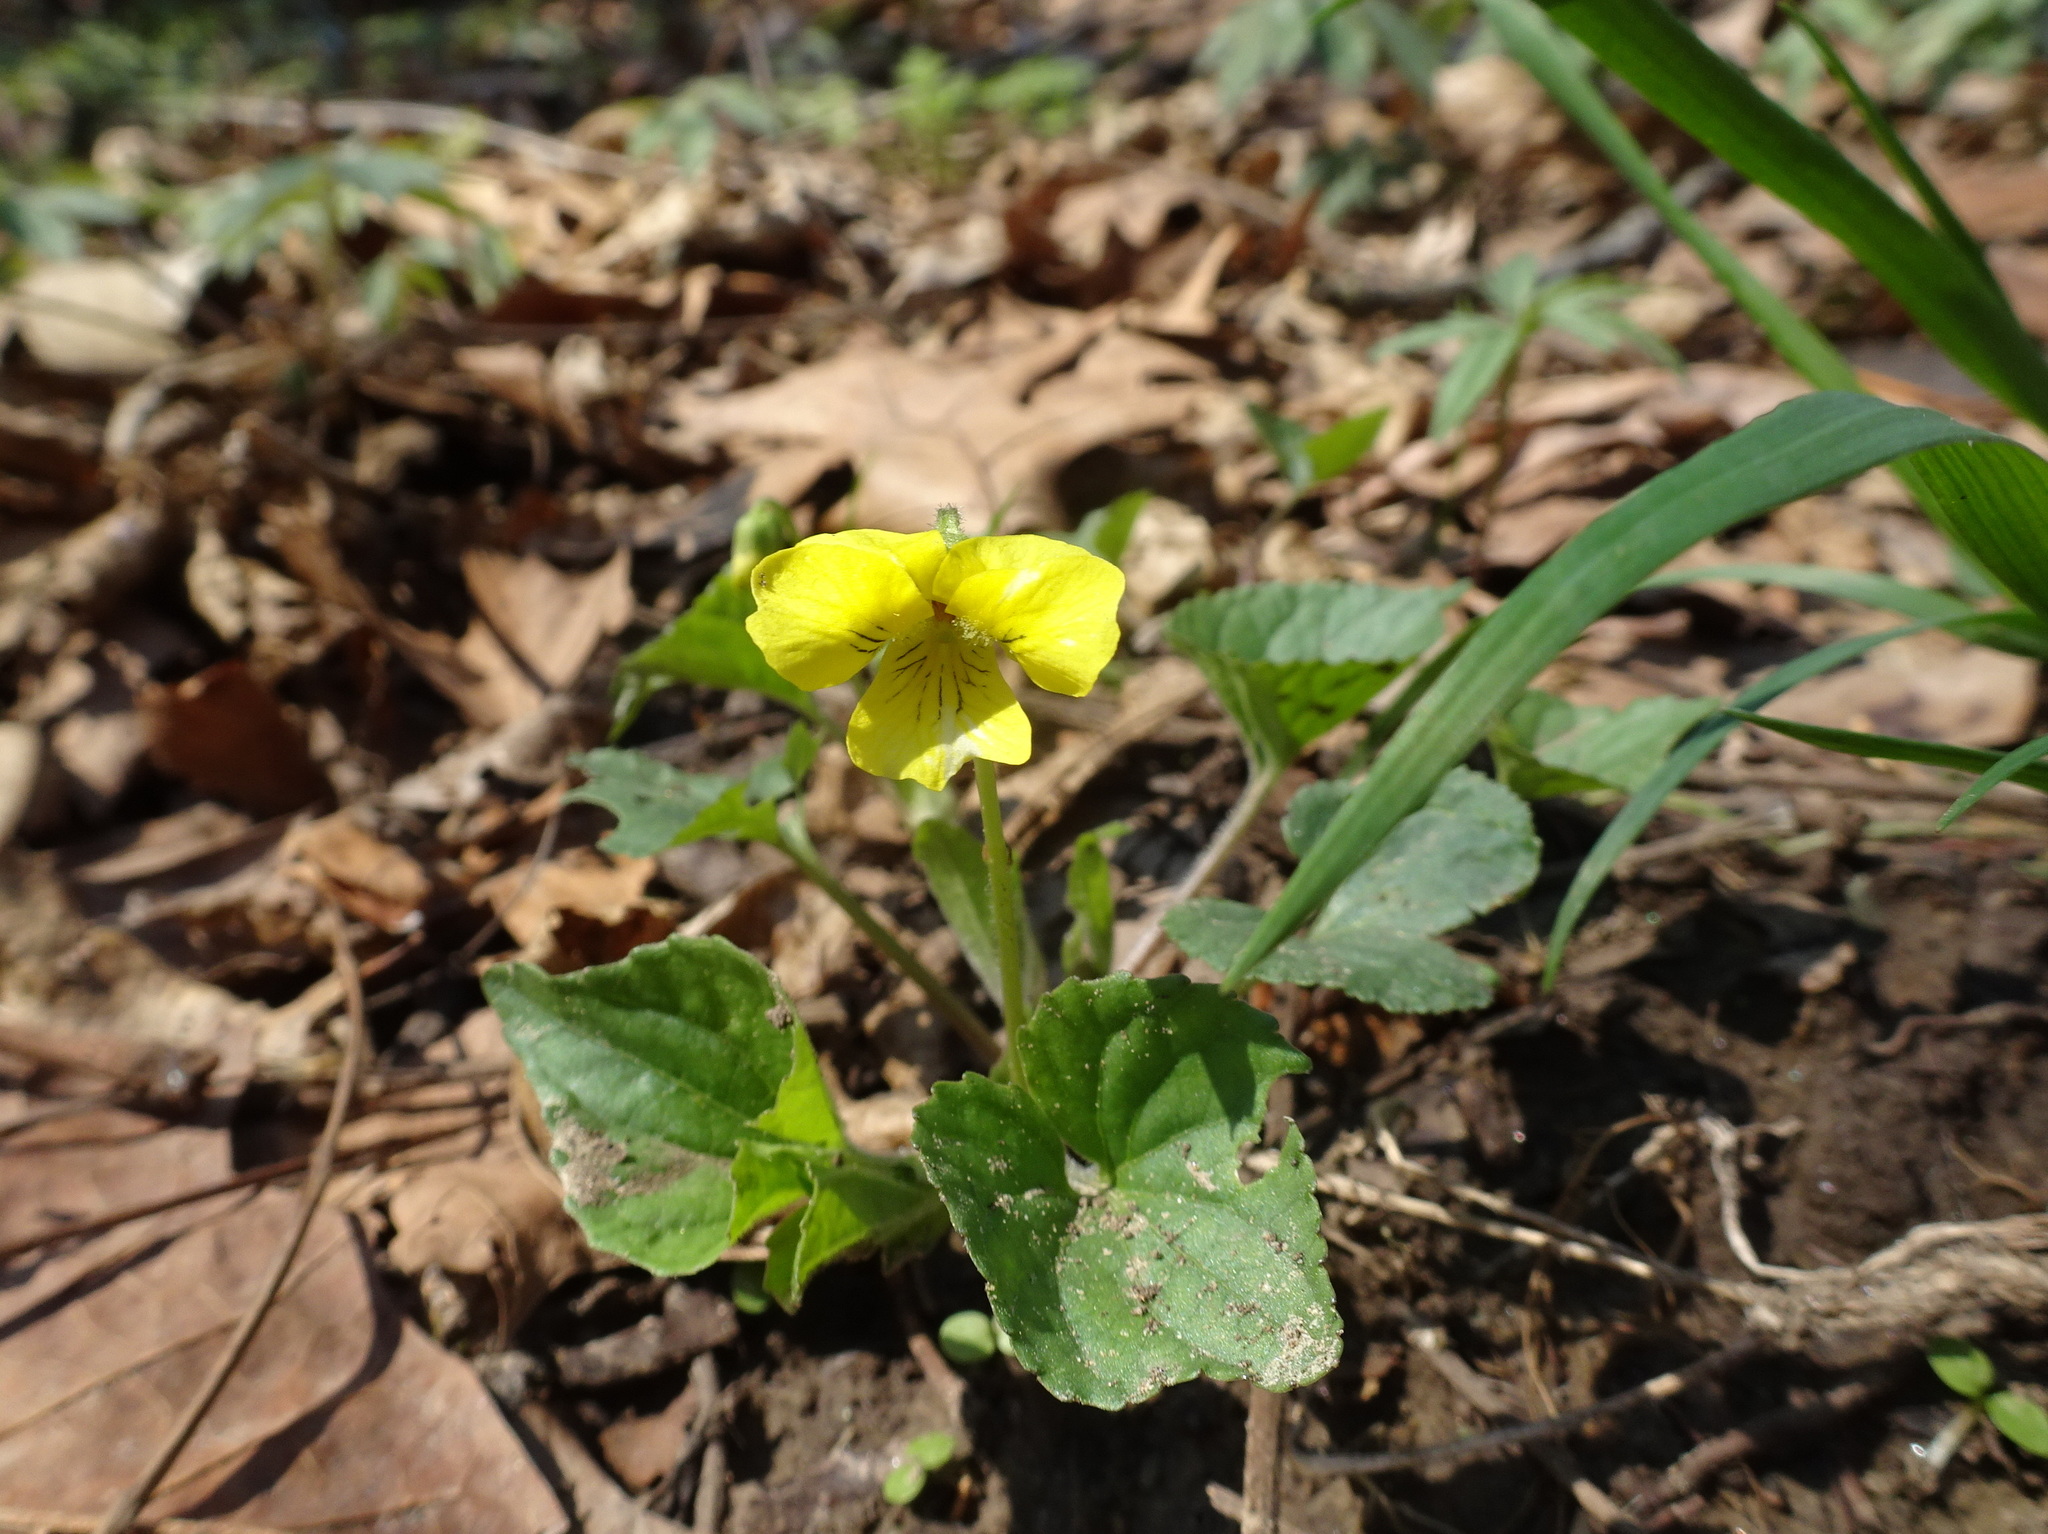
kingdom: Plantae
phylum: Tracheophyta
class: Magnoliopsida
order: Malpighiales
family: Violaceae
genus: Viola
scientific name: Viola eriocarpa
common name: Smooth yellow violet
